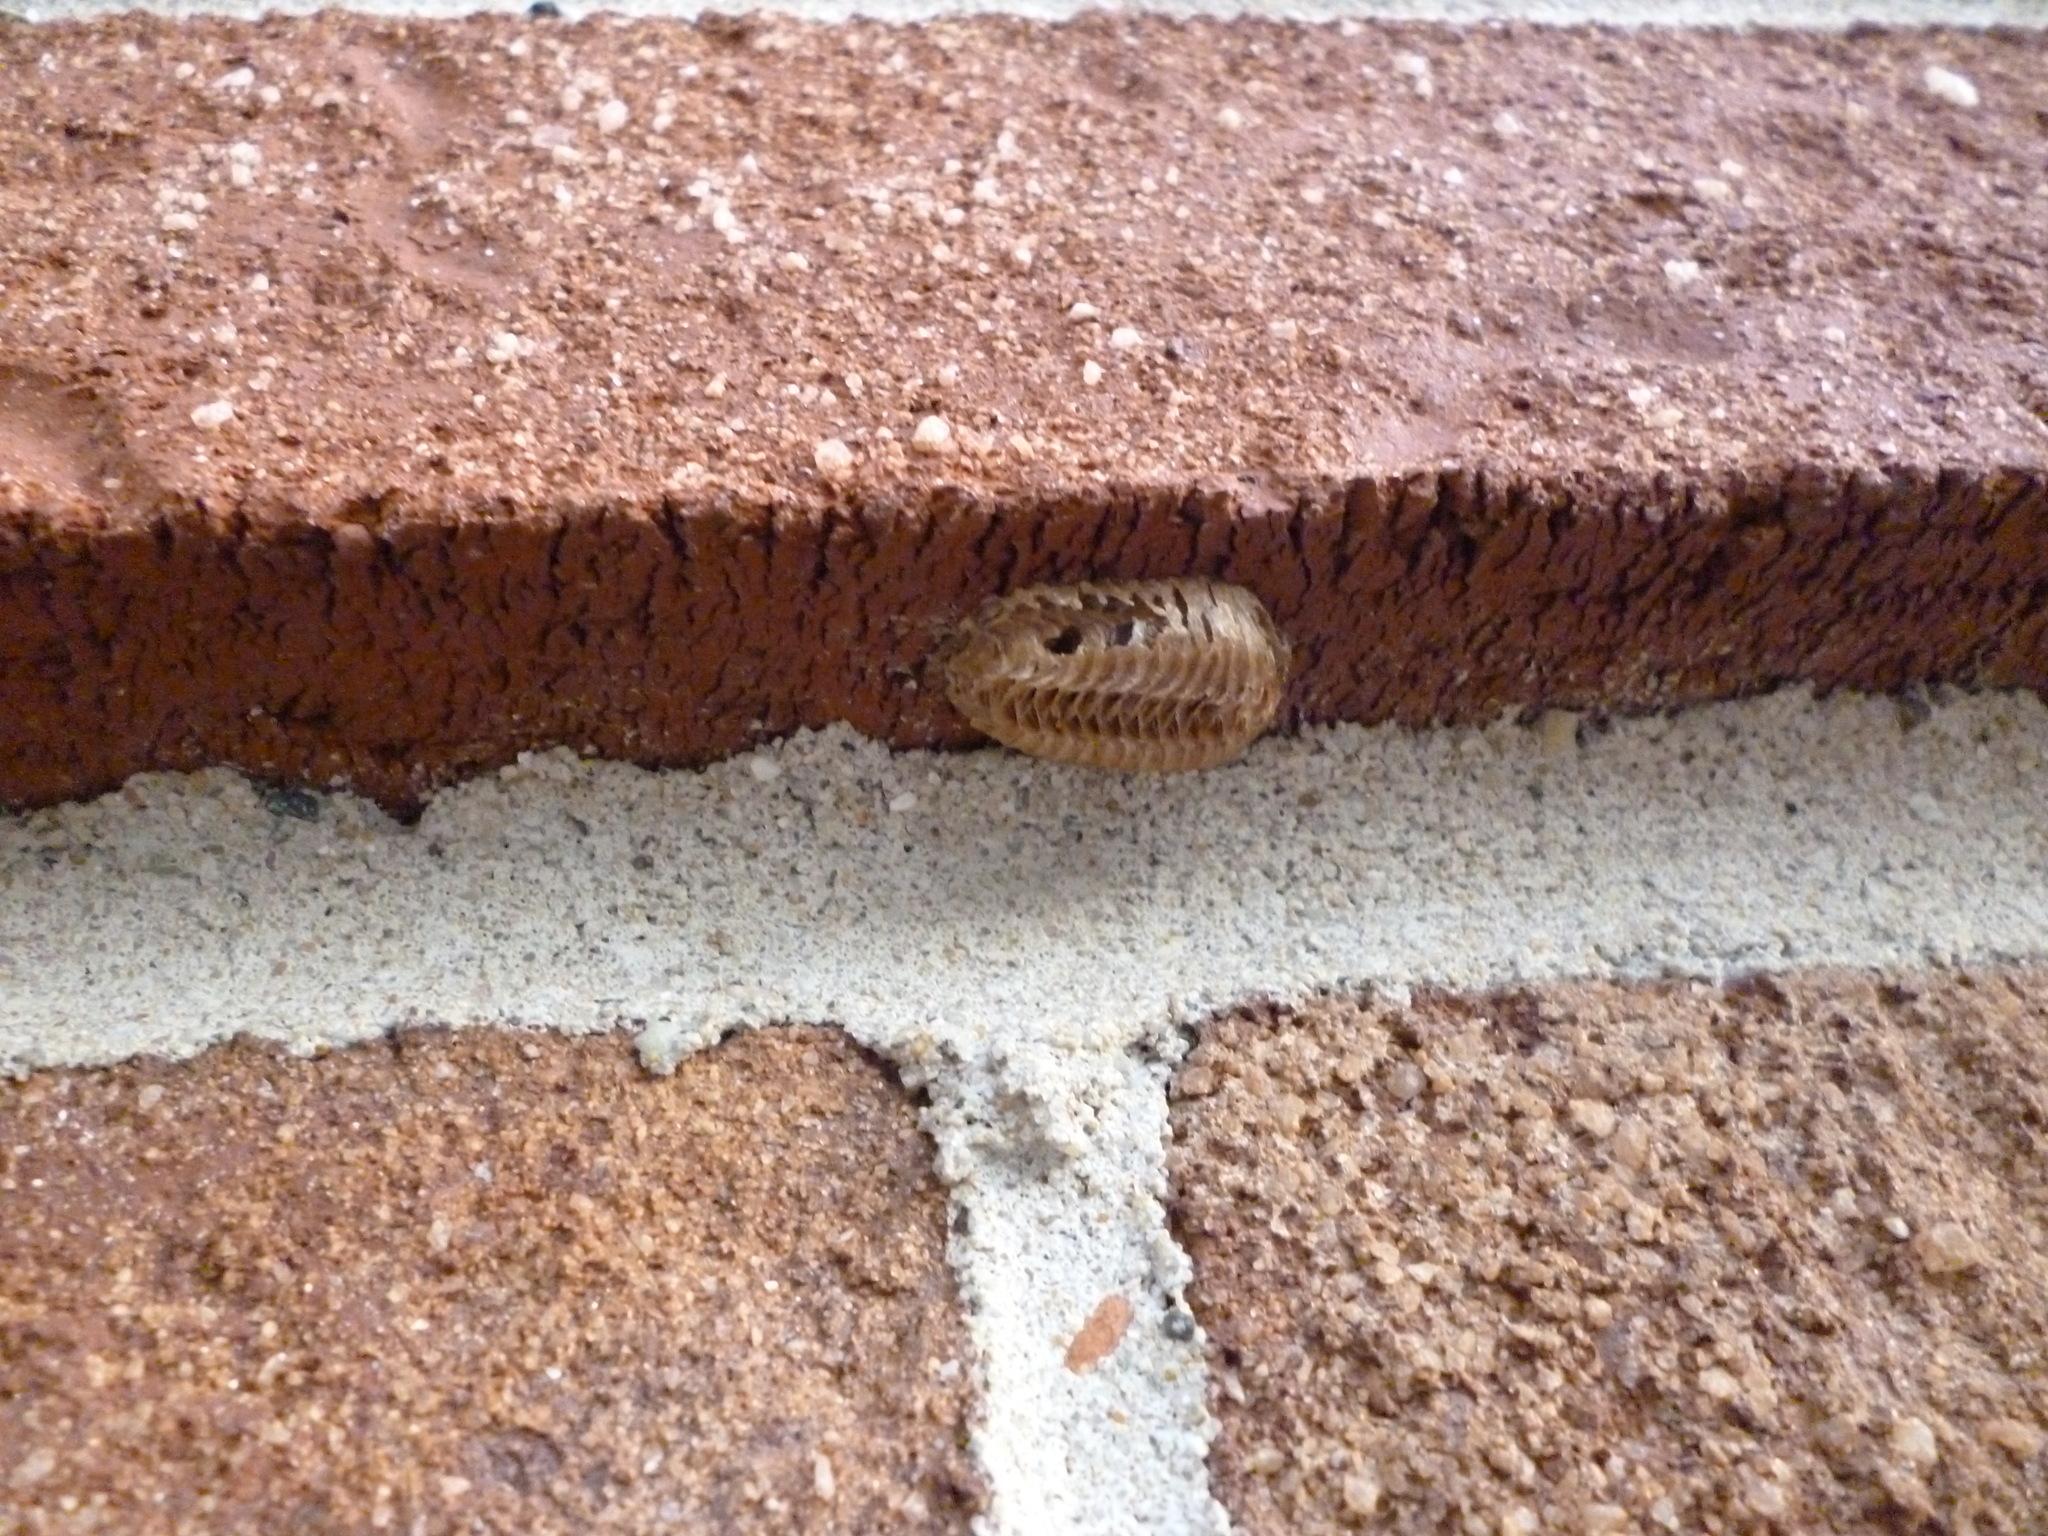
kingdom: Animalia
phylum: Arthropoda
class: Insecta
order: Mantodea
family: Mantidae
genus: Stagmomantis
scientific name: Stagmomantis carolina
